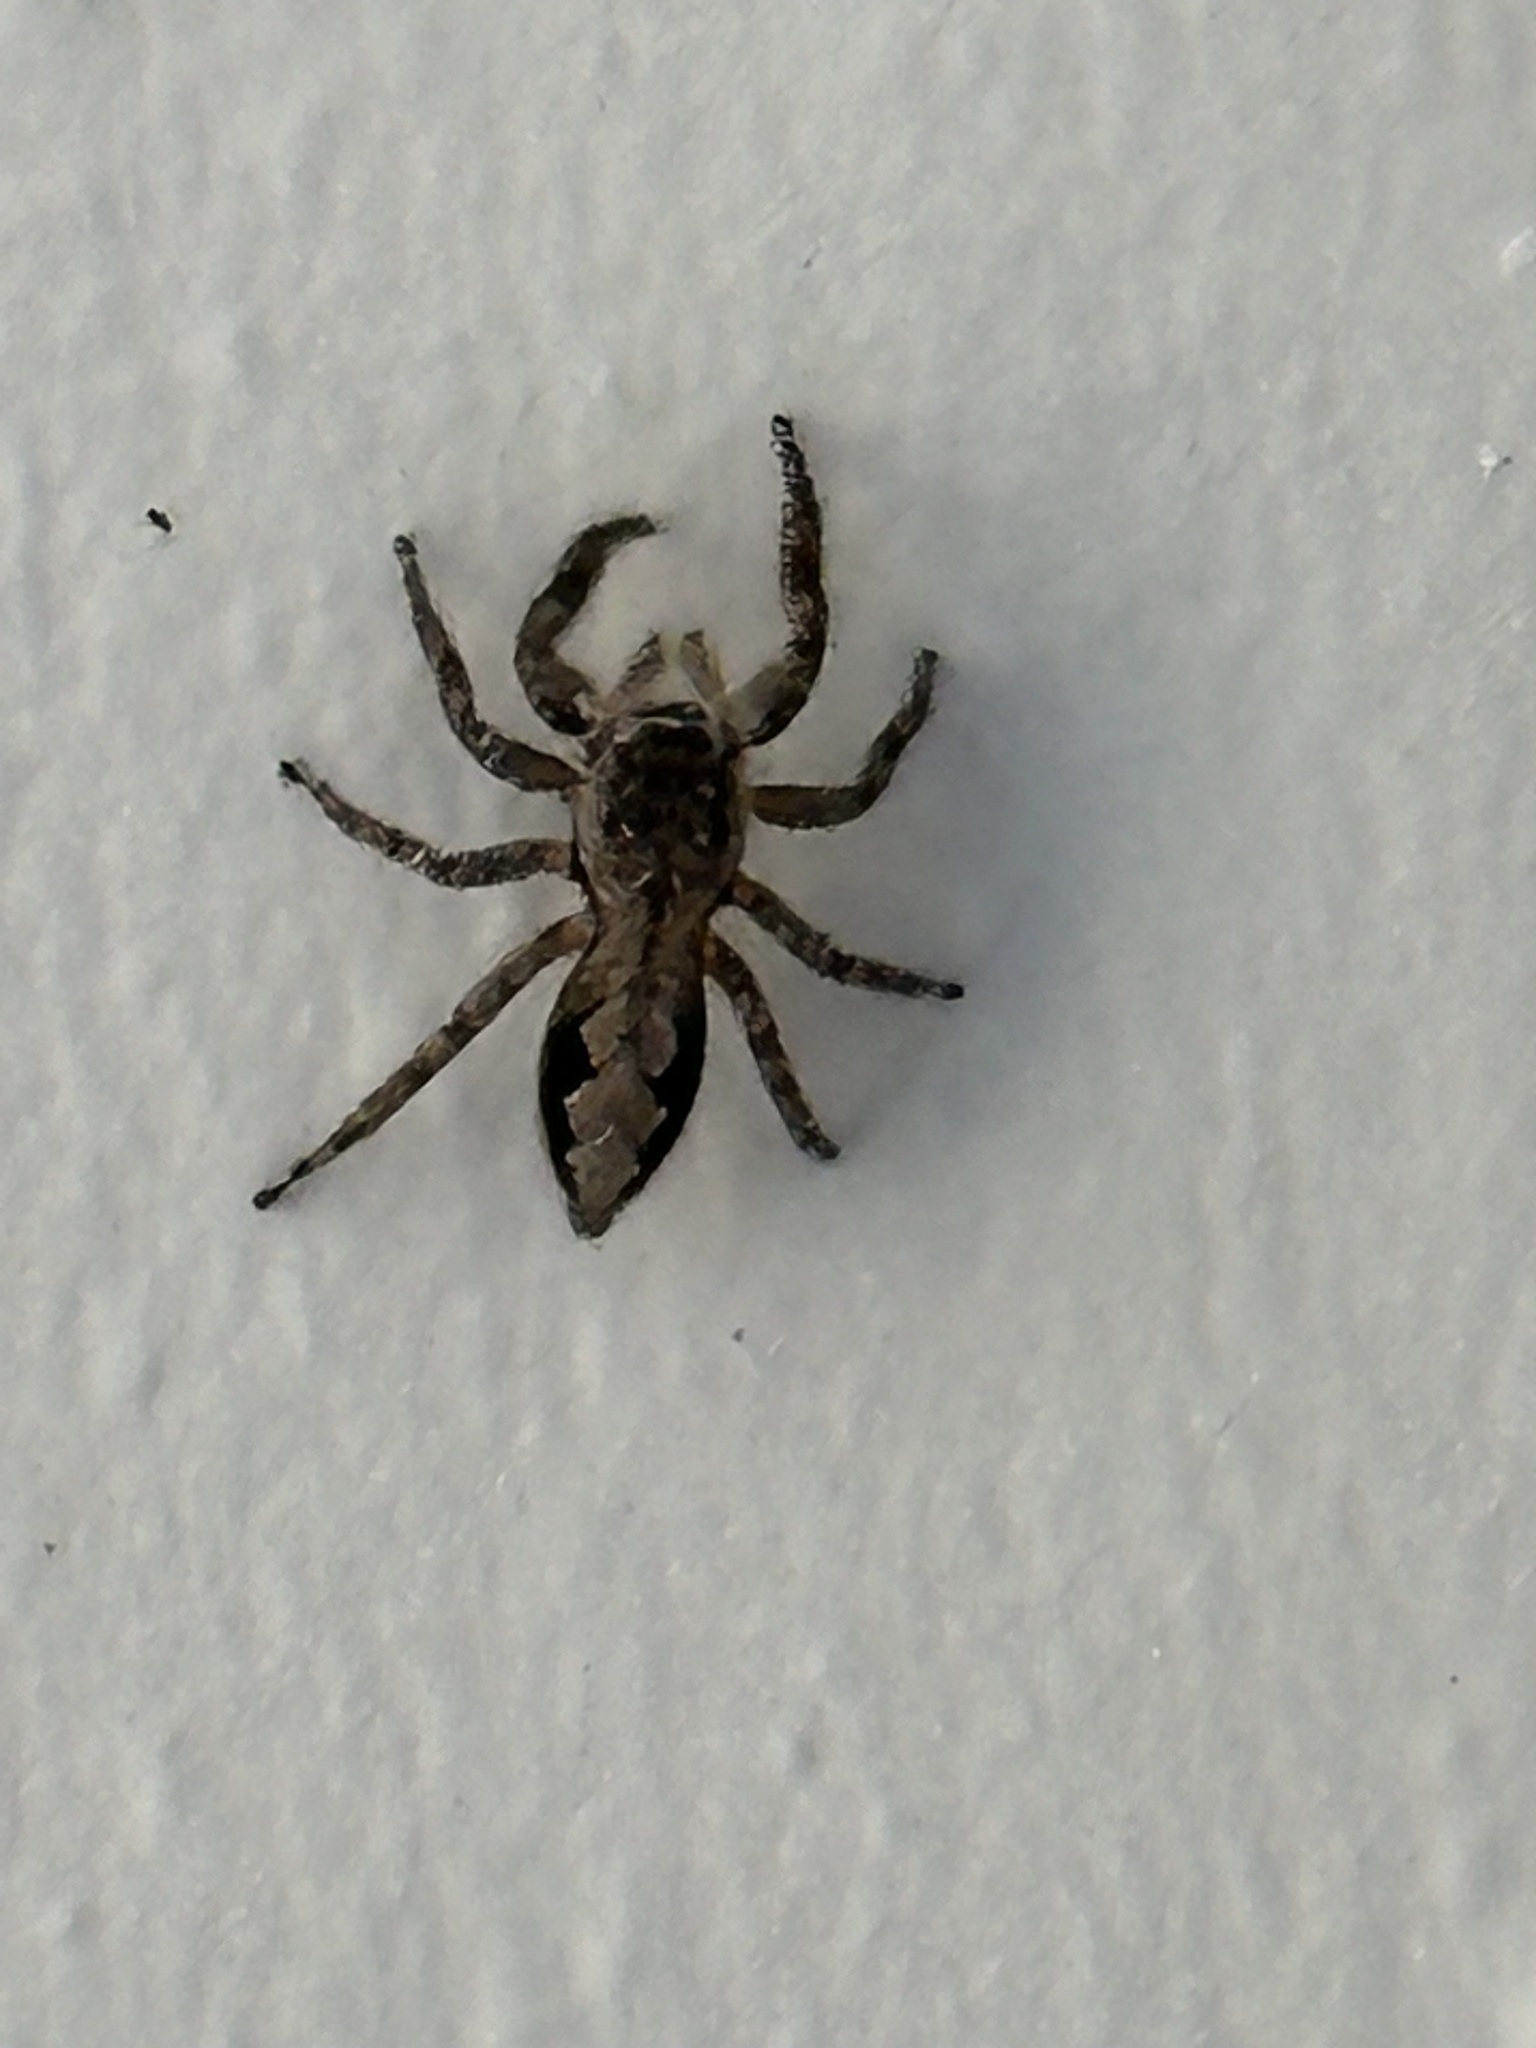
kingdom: Animalia
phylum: Arthropoda
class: Arachnida
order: Araneae
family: Salticidae
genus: Platycryptus
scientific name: Platycryptus undatus
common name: Tan jumping spider
